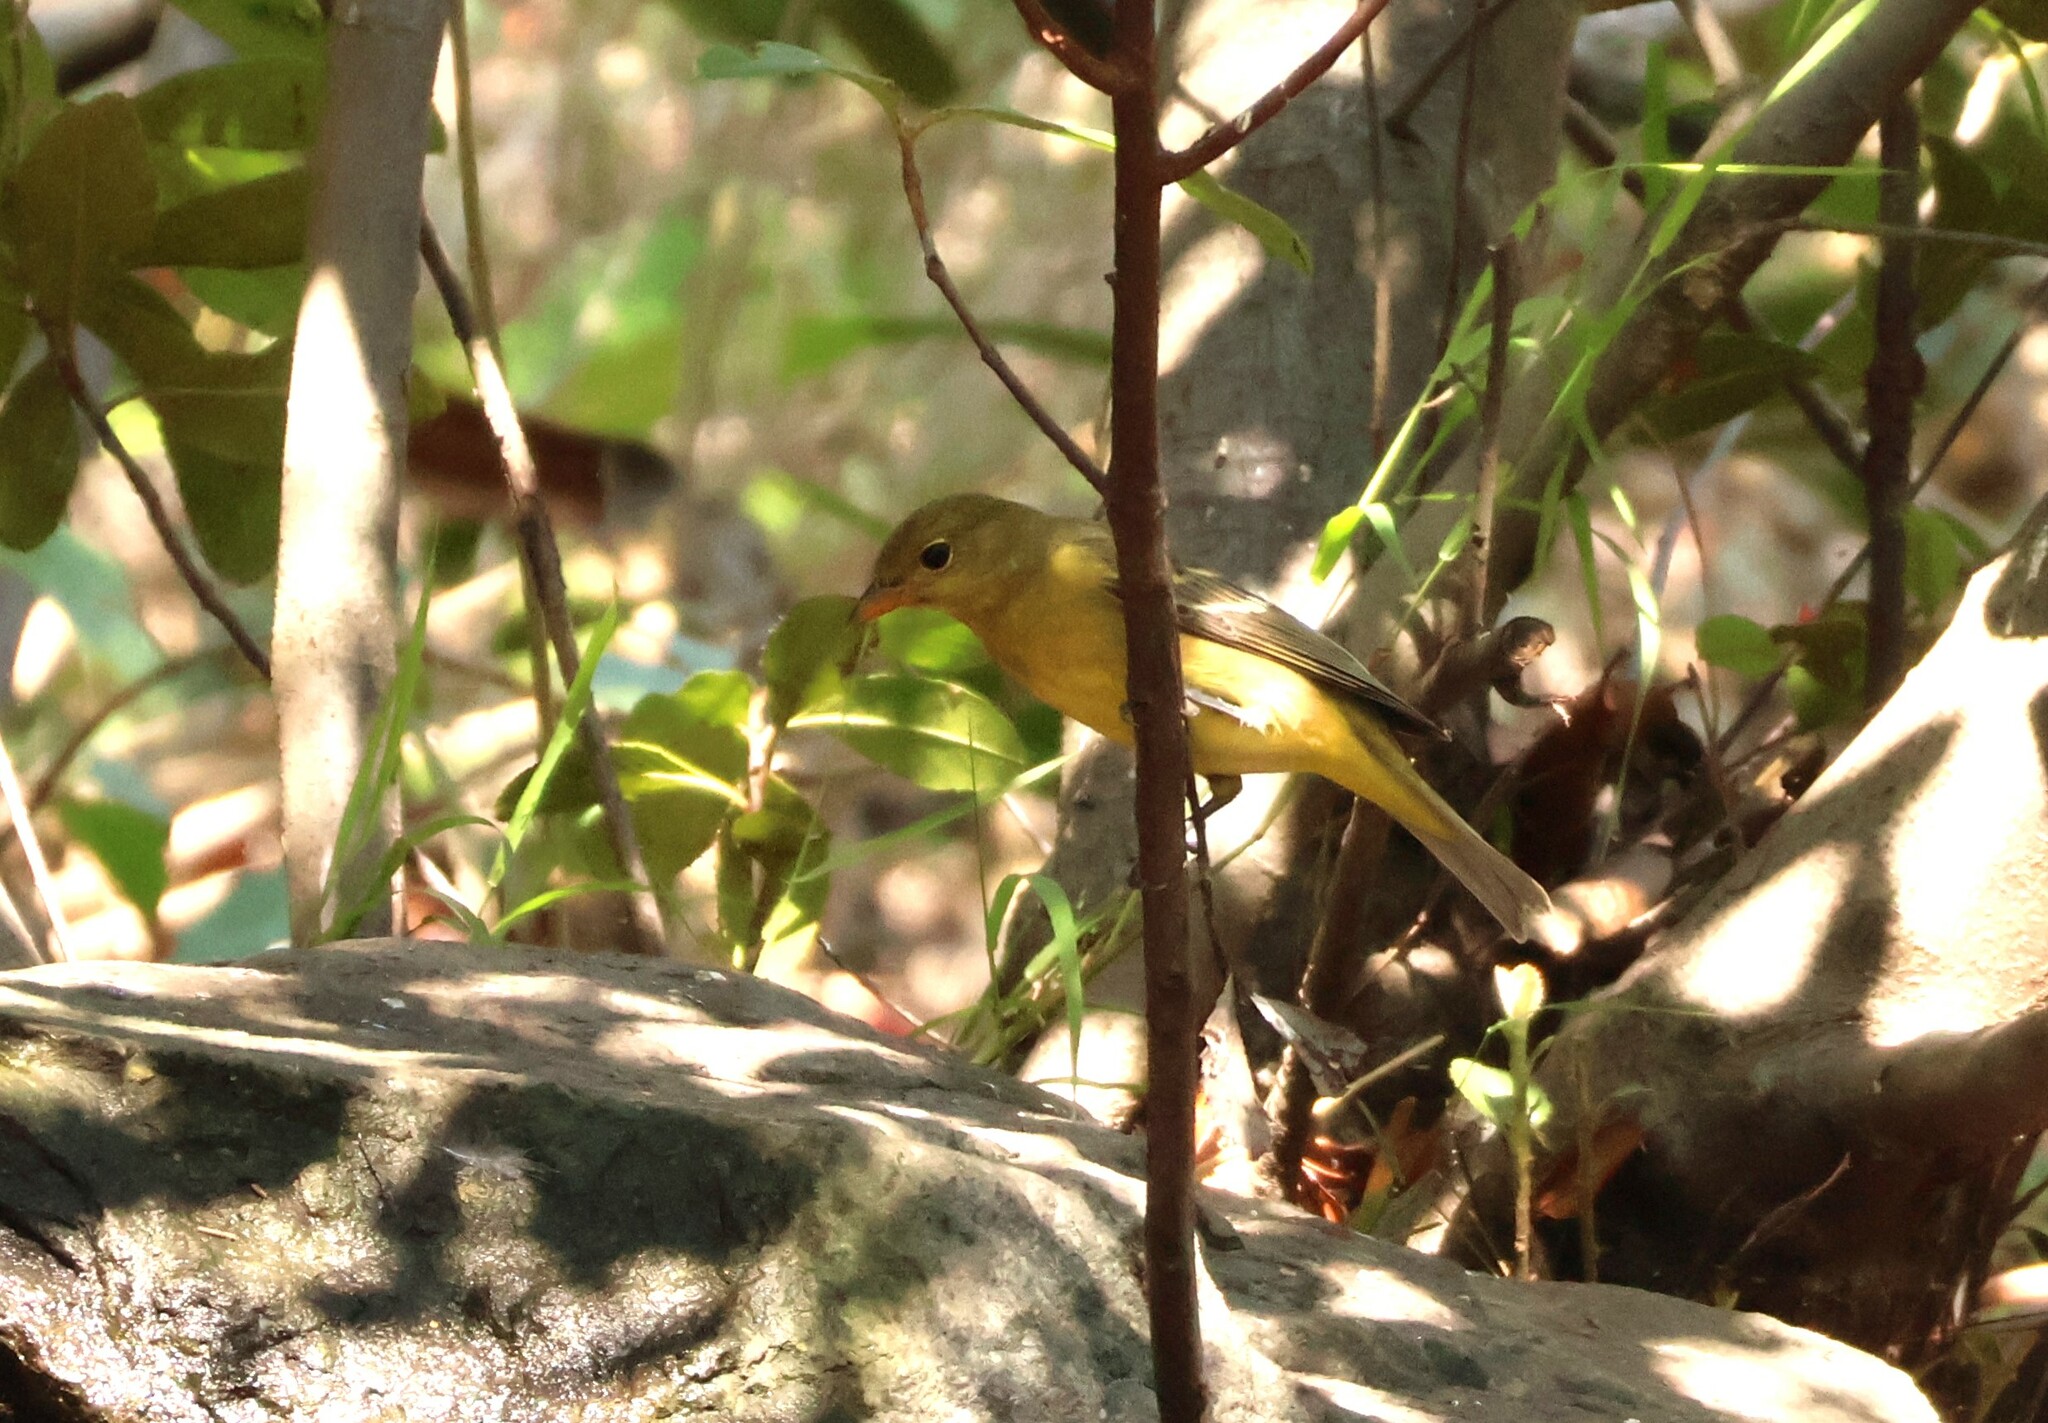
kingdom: Animalia
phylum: Chordata
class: Aves
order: Passeriformes
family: Cardinalidae
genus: Piranga
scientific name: Piranga ludoviciana
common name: Western tanager
